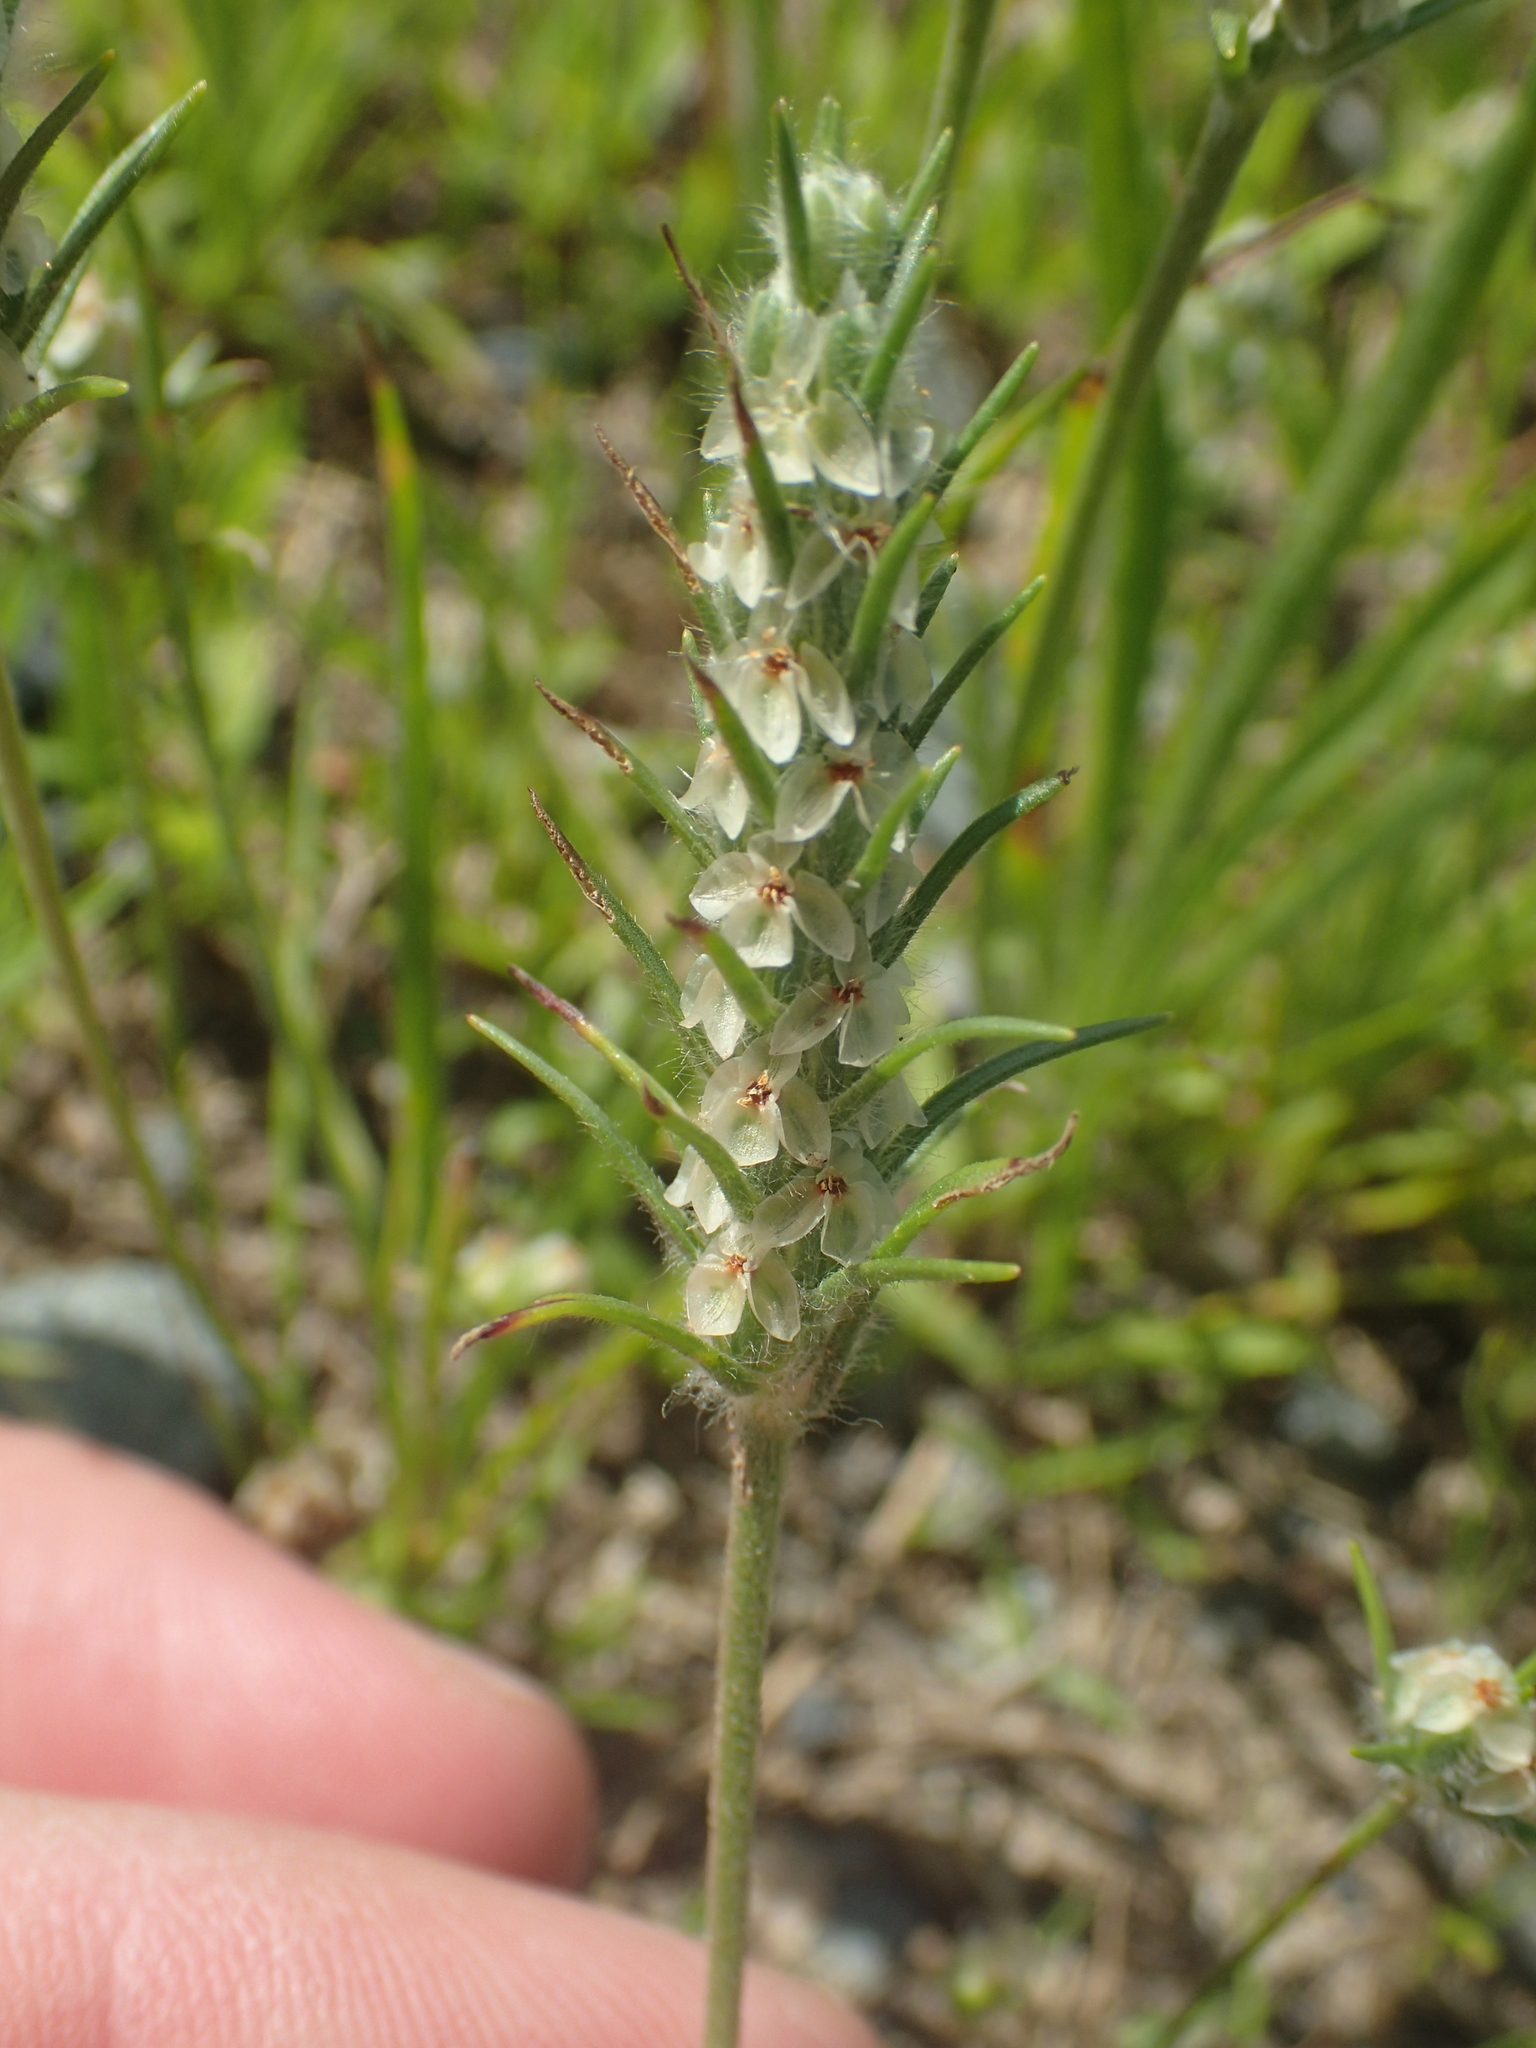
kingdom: Plantae
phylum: Tracheophyta
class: Magnoliopsida
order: Lamiales
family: Plantaginaceae
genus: Plantago
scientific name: Plantago aristata
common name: Bracted plantain
